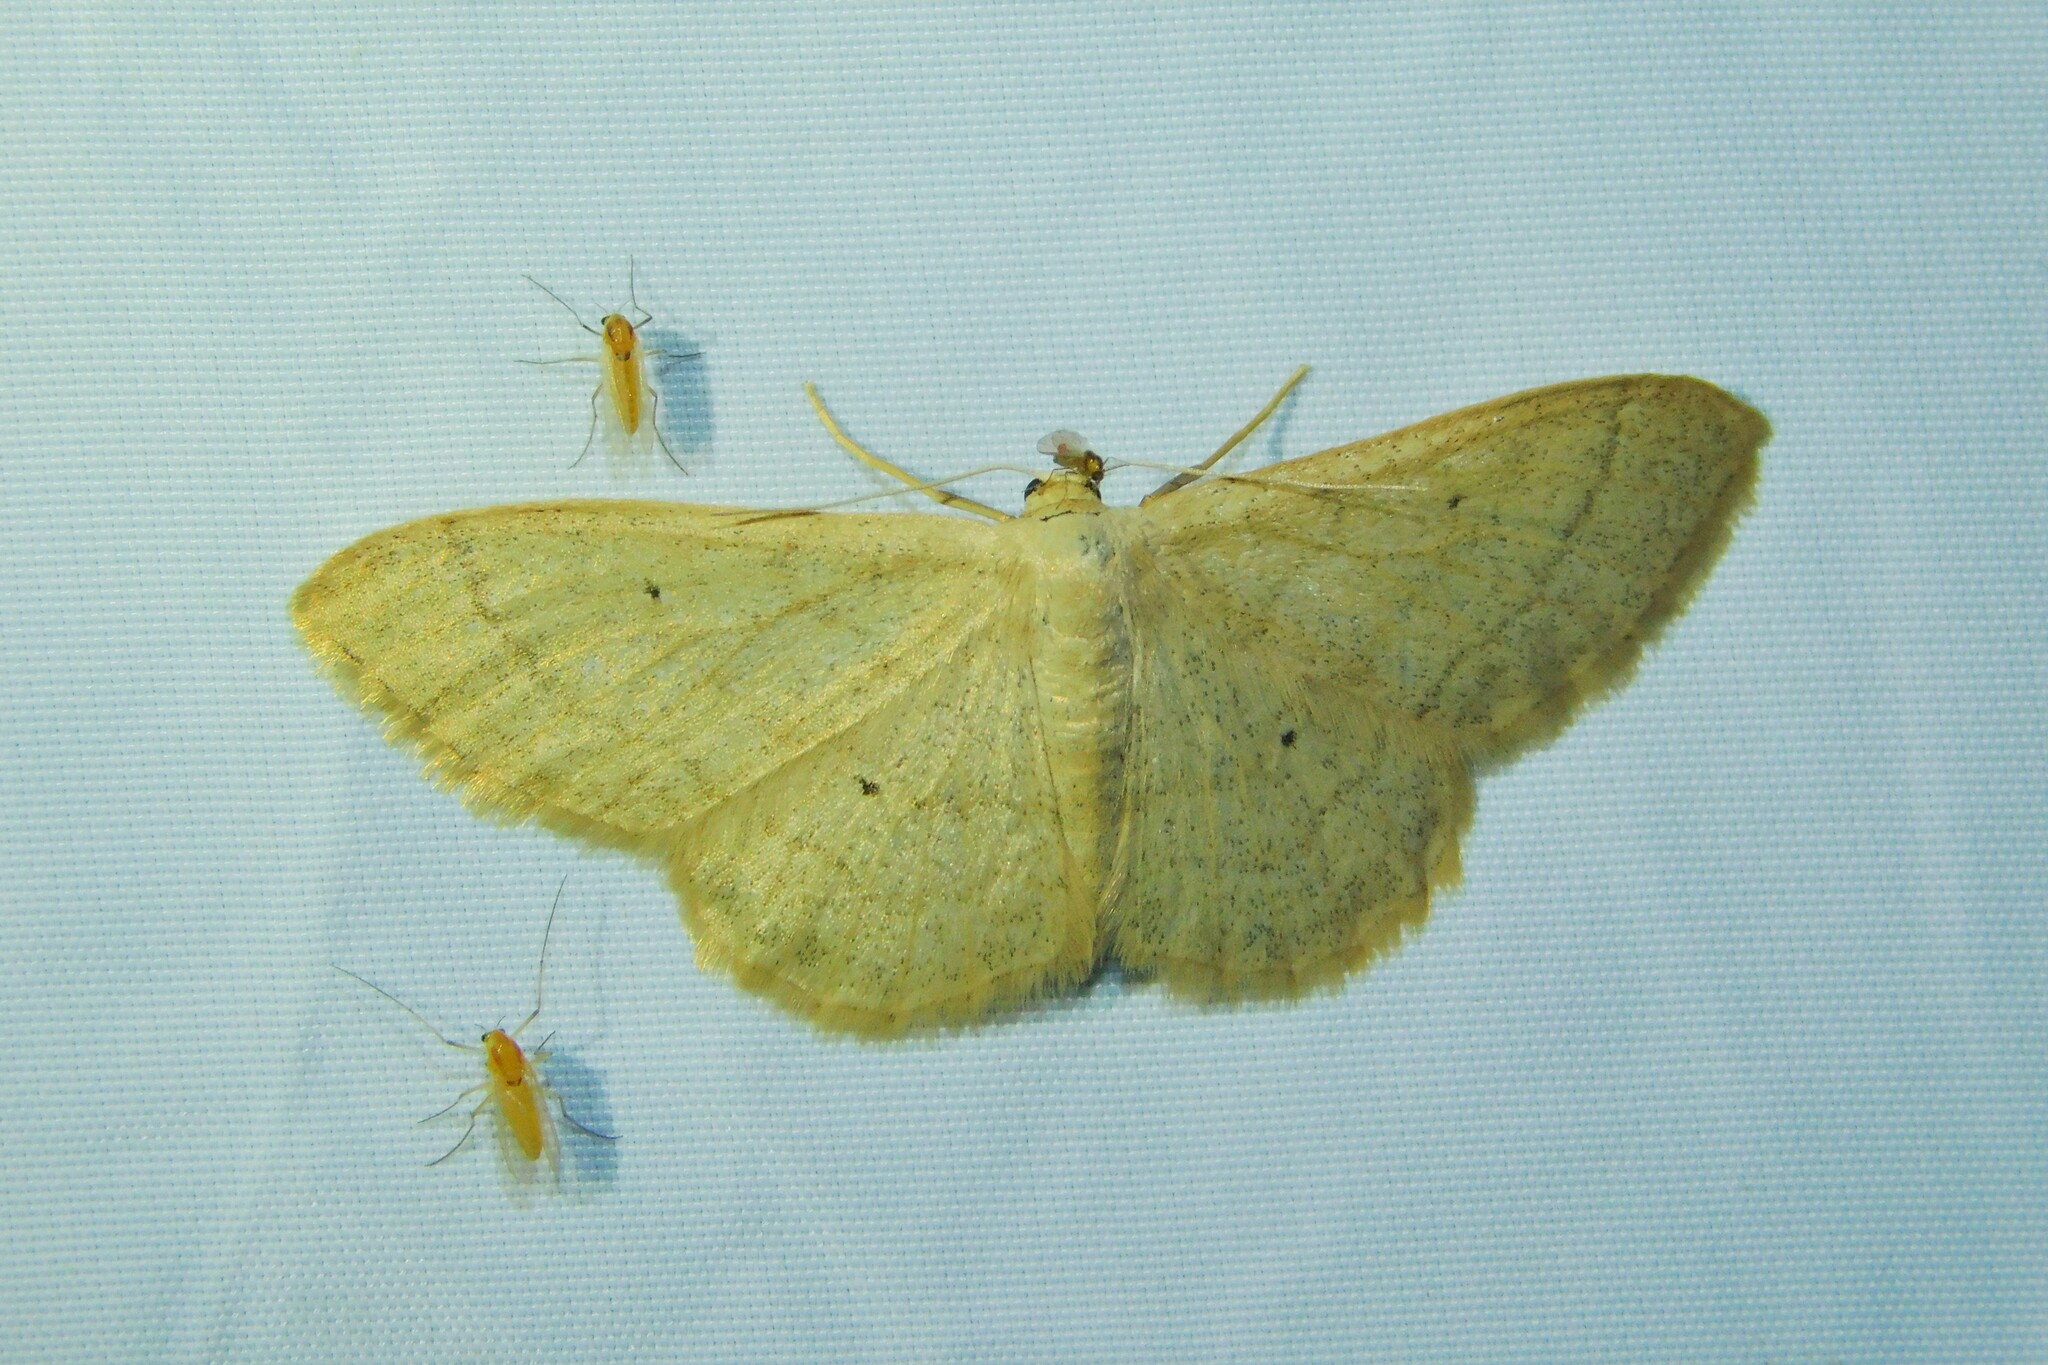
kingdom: Animalia
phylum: Arthropoda
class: Insecta
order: Lepidoptera
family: Geometridae
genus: Idaea
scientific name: Idaea straminata
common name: Plain wave
